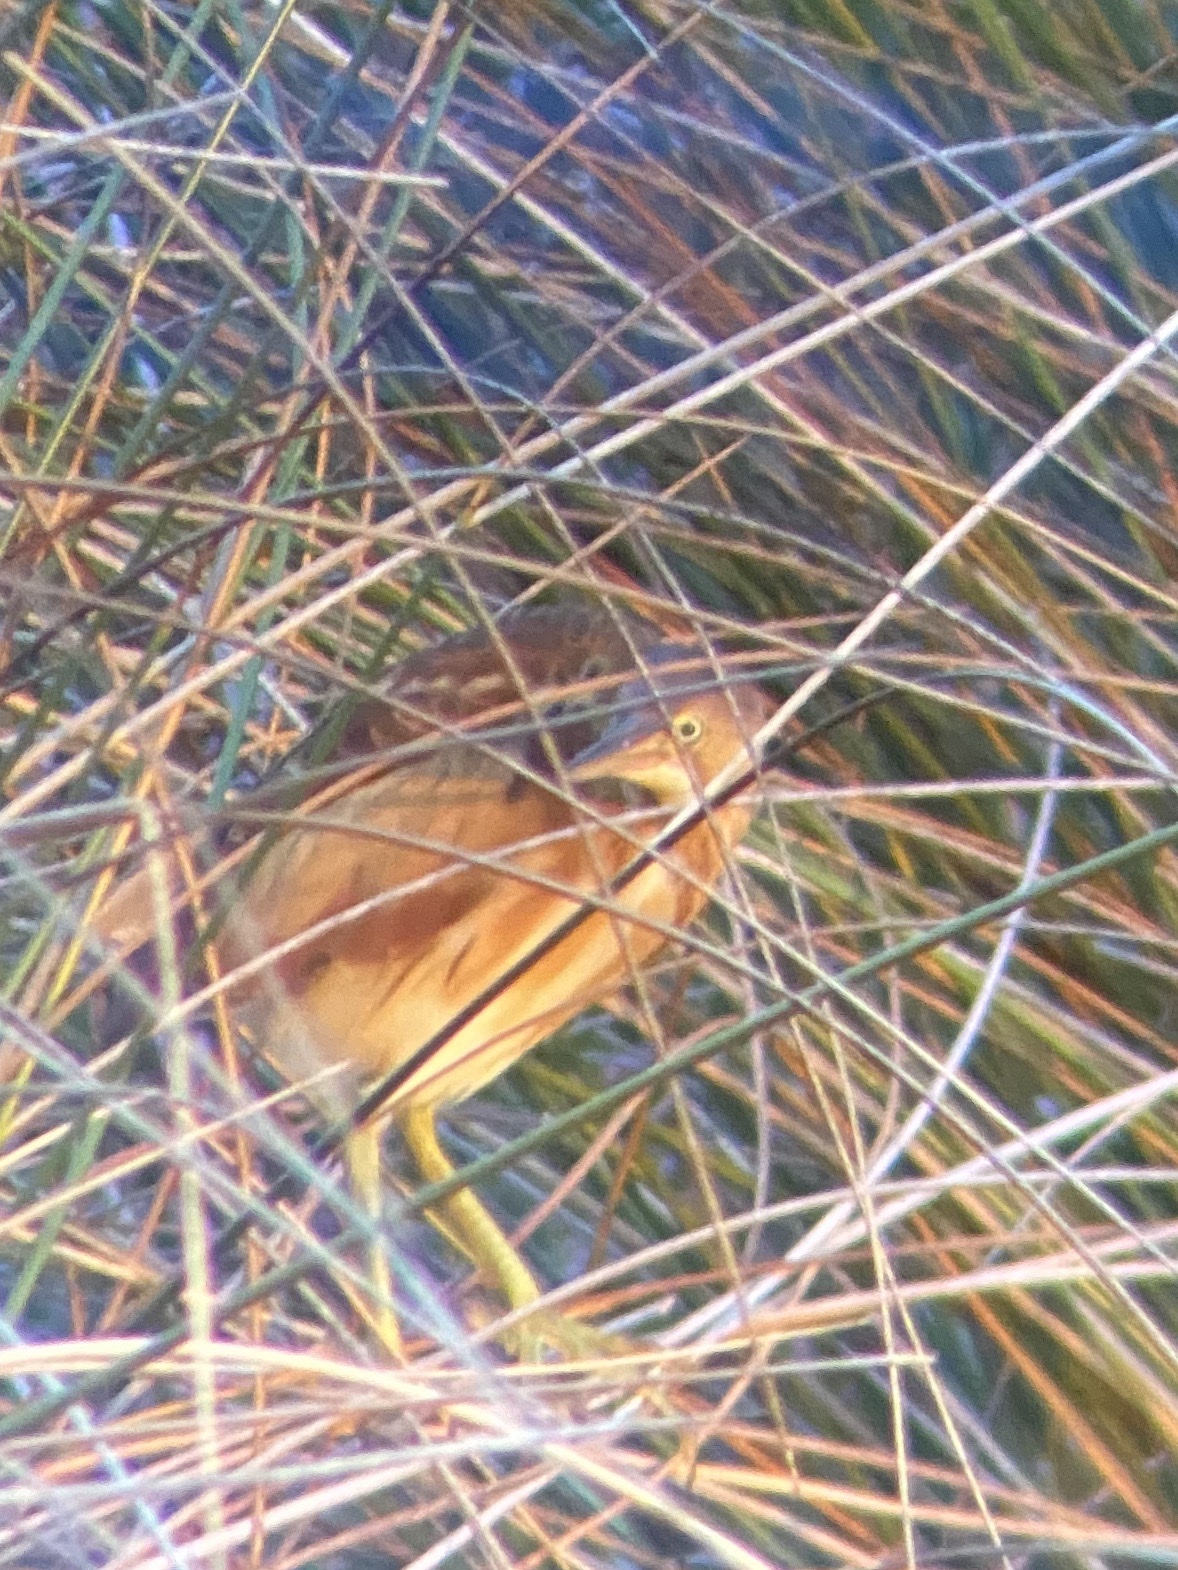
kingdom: Animalia
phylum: Chordata
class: Aves
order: Pelecaniformes
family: Ardeidae
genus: Ixobrychus
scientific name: Ixobrychus exilis
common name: Least bittern
